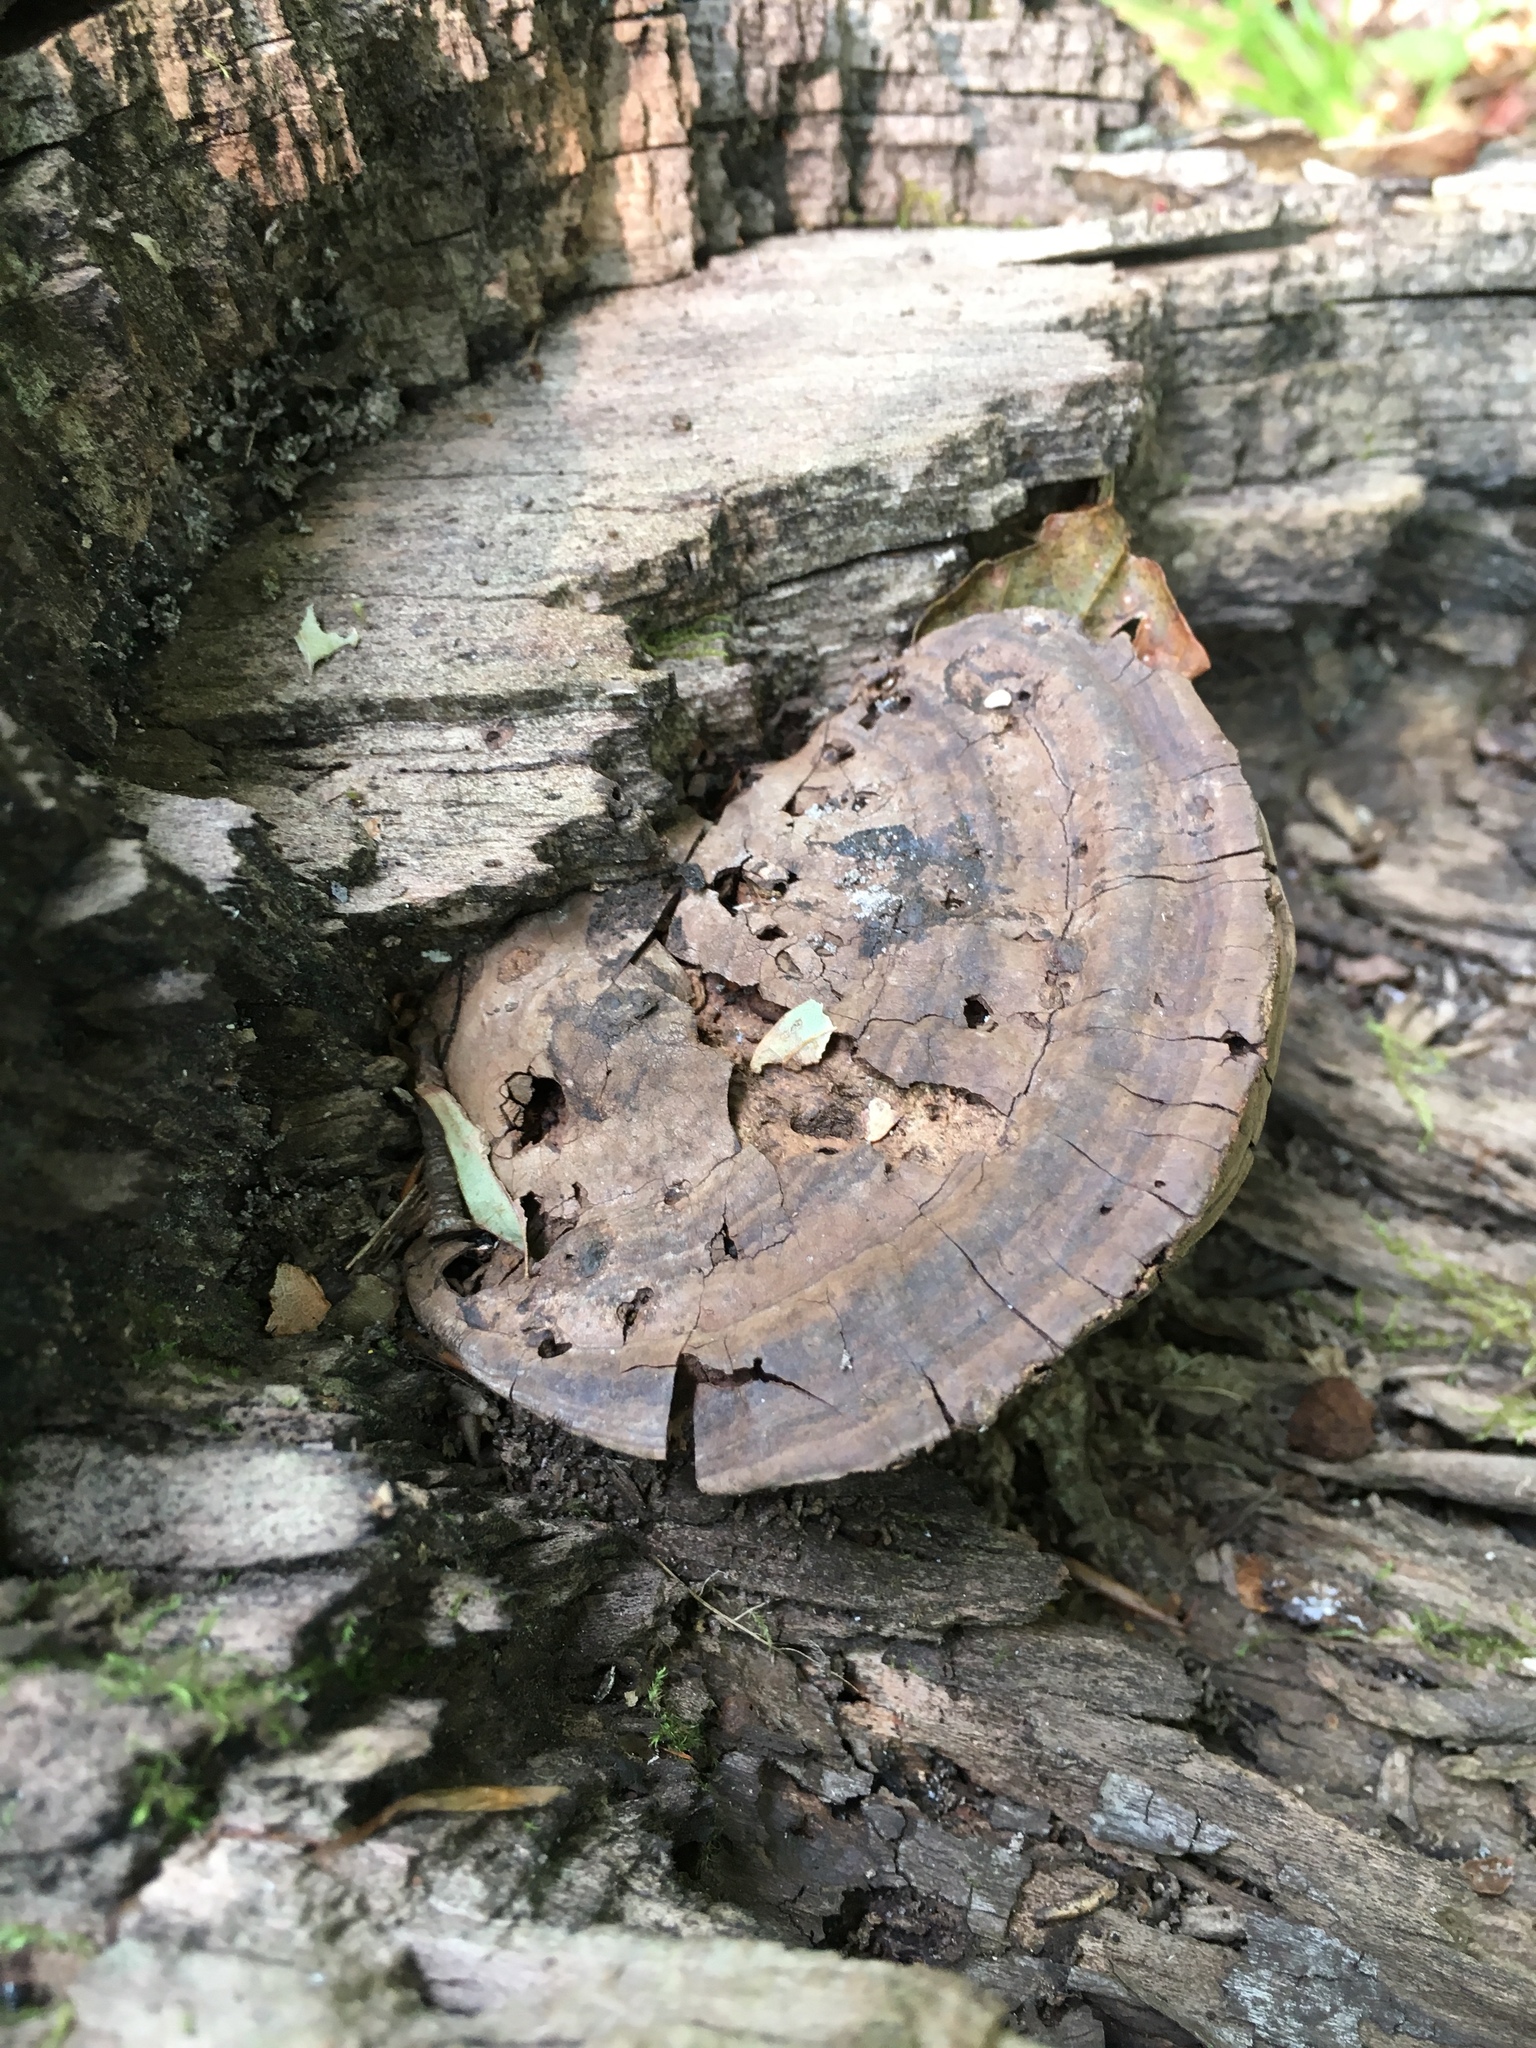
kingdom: Fungi
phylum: Basidiomycota
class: Agaricomycetes
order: Polyporales
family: Polyporaceae
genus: Ganoderma
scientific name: Ganoderma applanatum
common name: Artist's bracket
